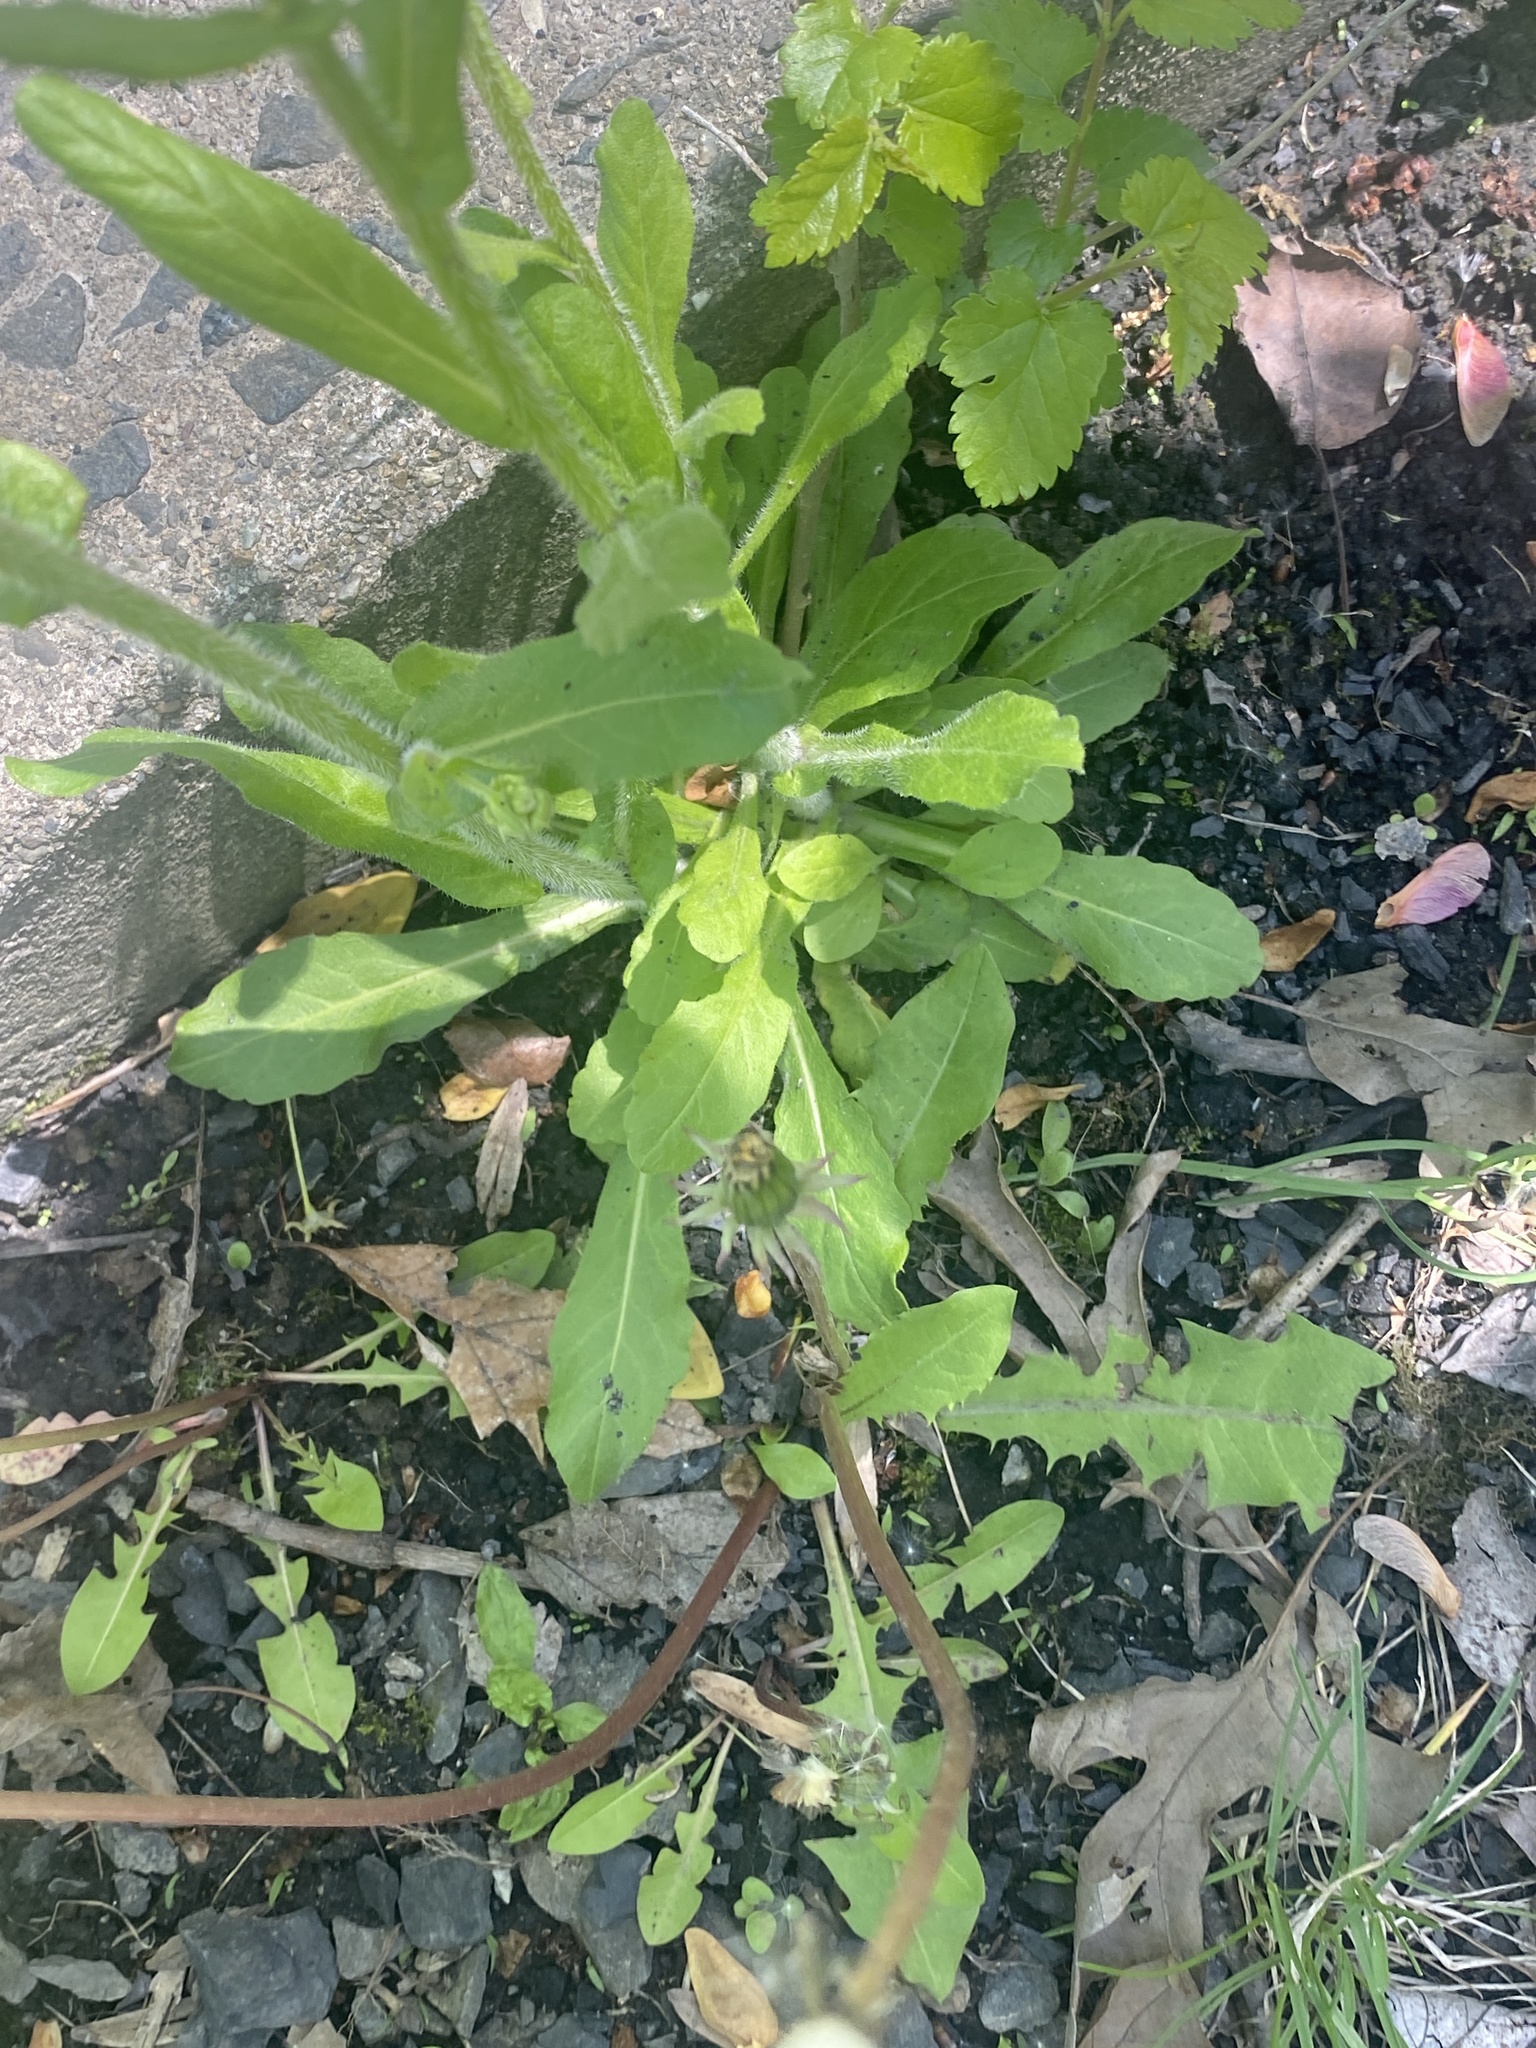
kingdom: Plantae
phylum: Tracheophyta
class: Magnoliopsida
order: Asterales
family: Asteraceae
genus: Erigeron
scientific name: Erigeron philadelphicus
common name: Robin's-plantain
